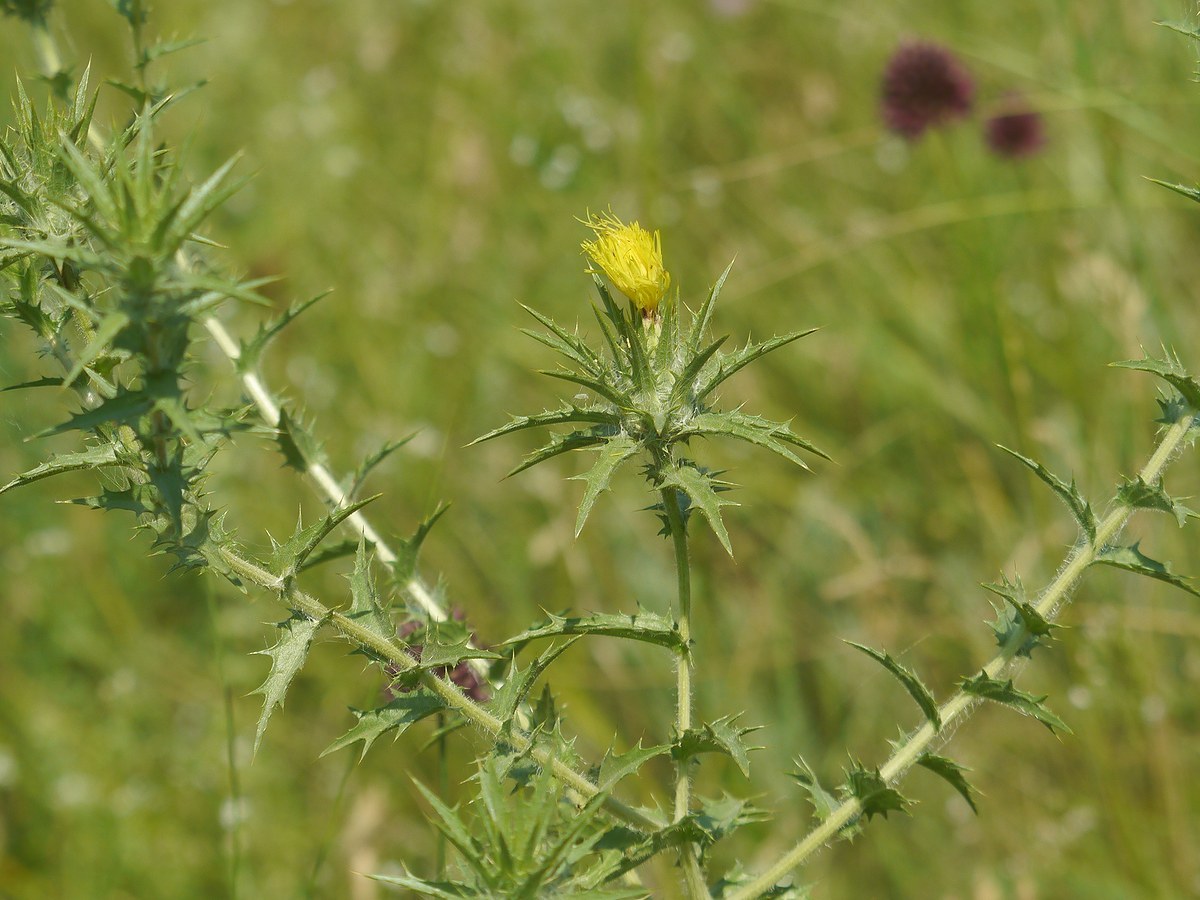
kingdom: Plantae
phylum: Tracheophyta
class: Magnoliopsida
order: Asterales
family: Asteraceae
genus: Carthamus
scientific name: Carthamus lanatus
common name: Downy safflower
